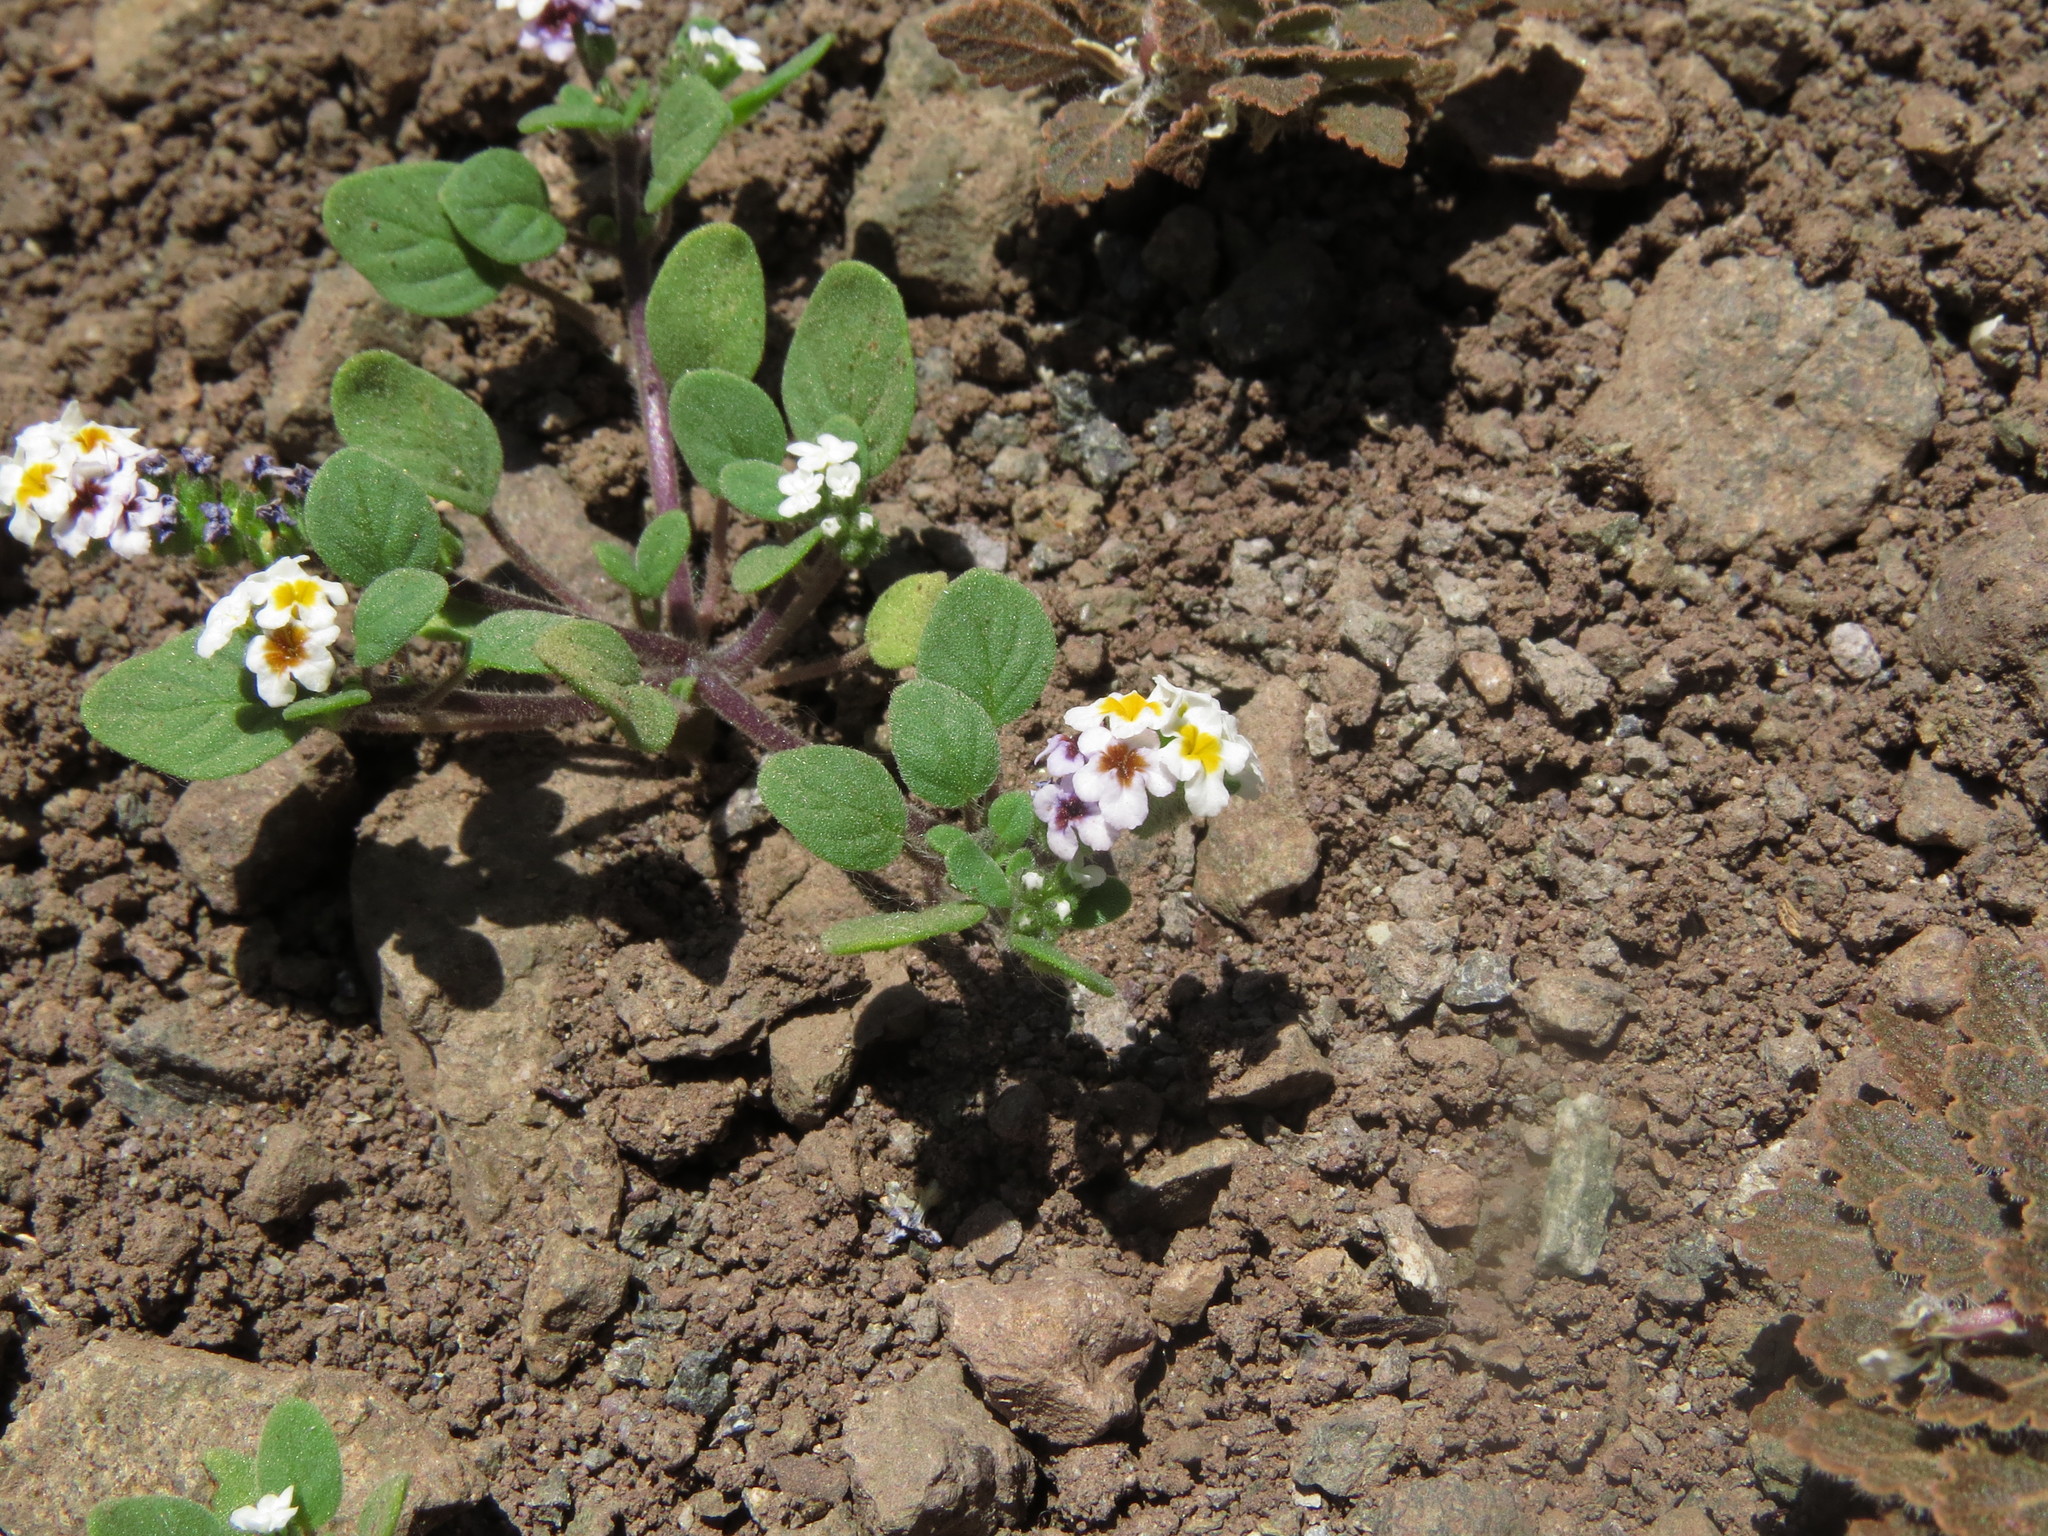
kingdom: Plantae
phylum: Tracheophyta
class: Magnoliopsida
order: Boraginales
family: Heliotropiaceae
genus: Heliotropium
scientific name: Heliotropium geissei
